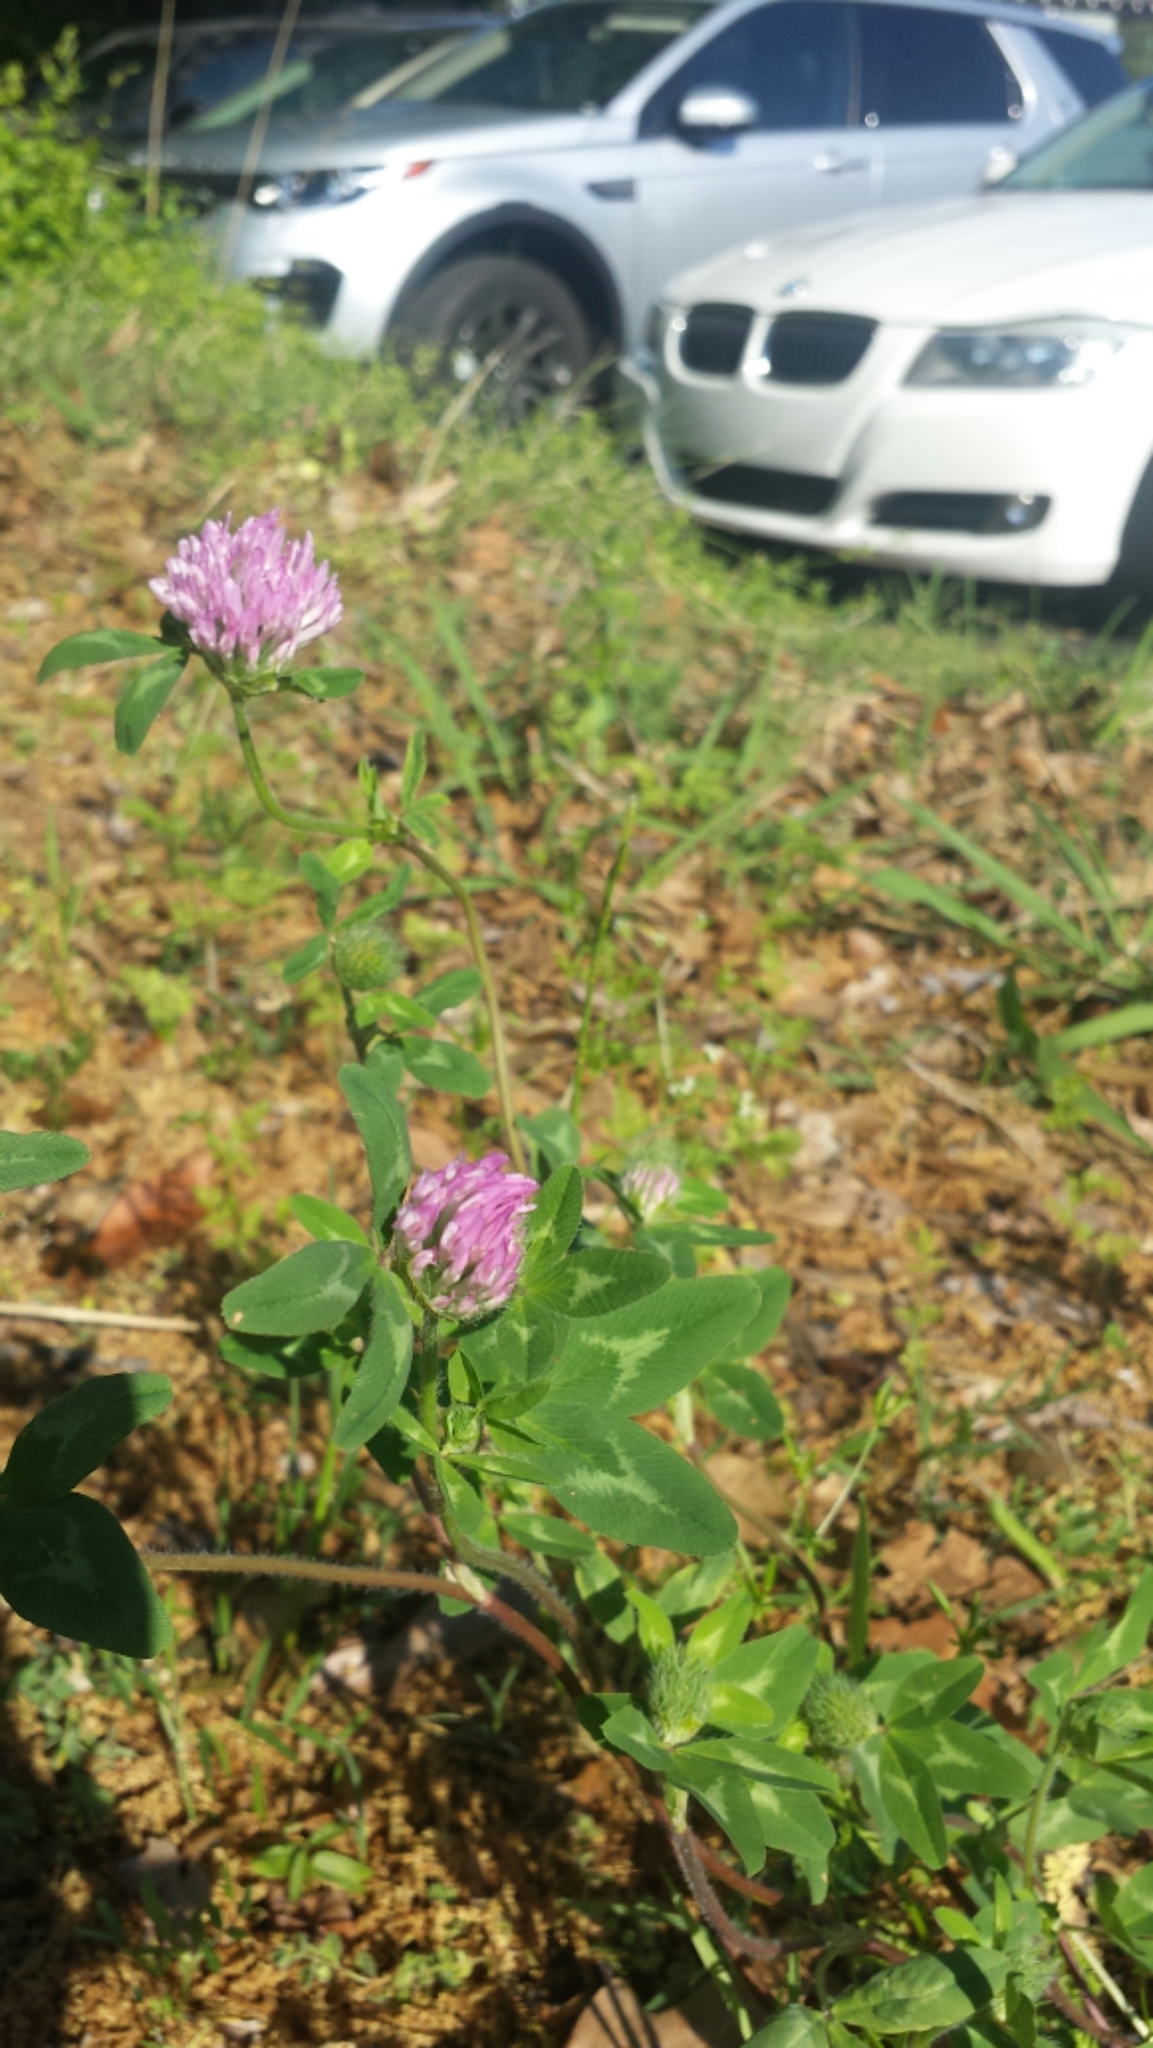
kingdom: Plantae
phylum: Tracheophyta
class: Magnoliopsida
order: Fabales
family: Fabaceae
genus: Trifolium
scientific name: Trifolium pratense
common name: Red clover
